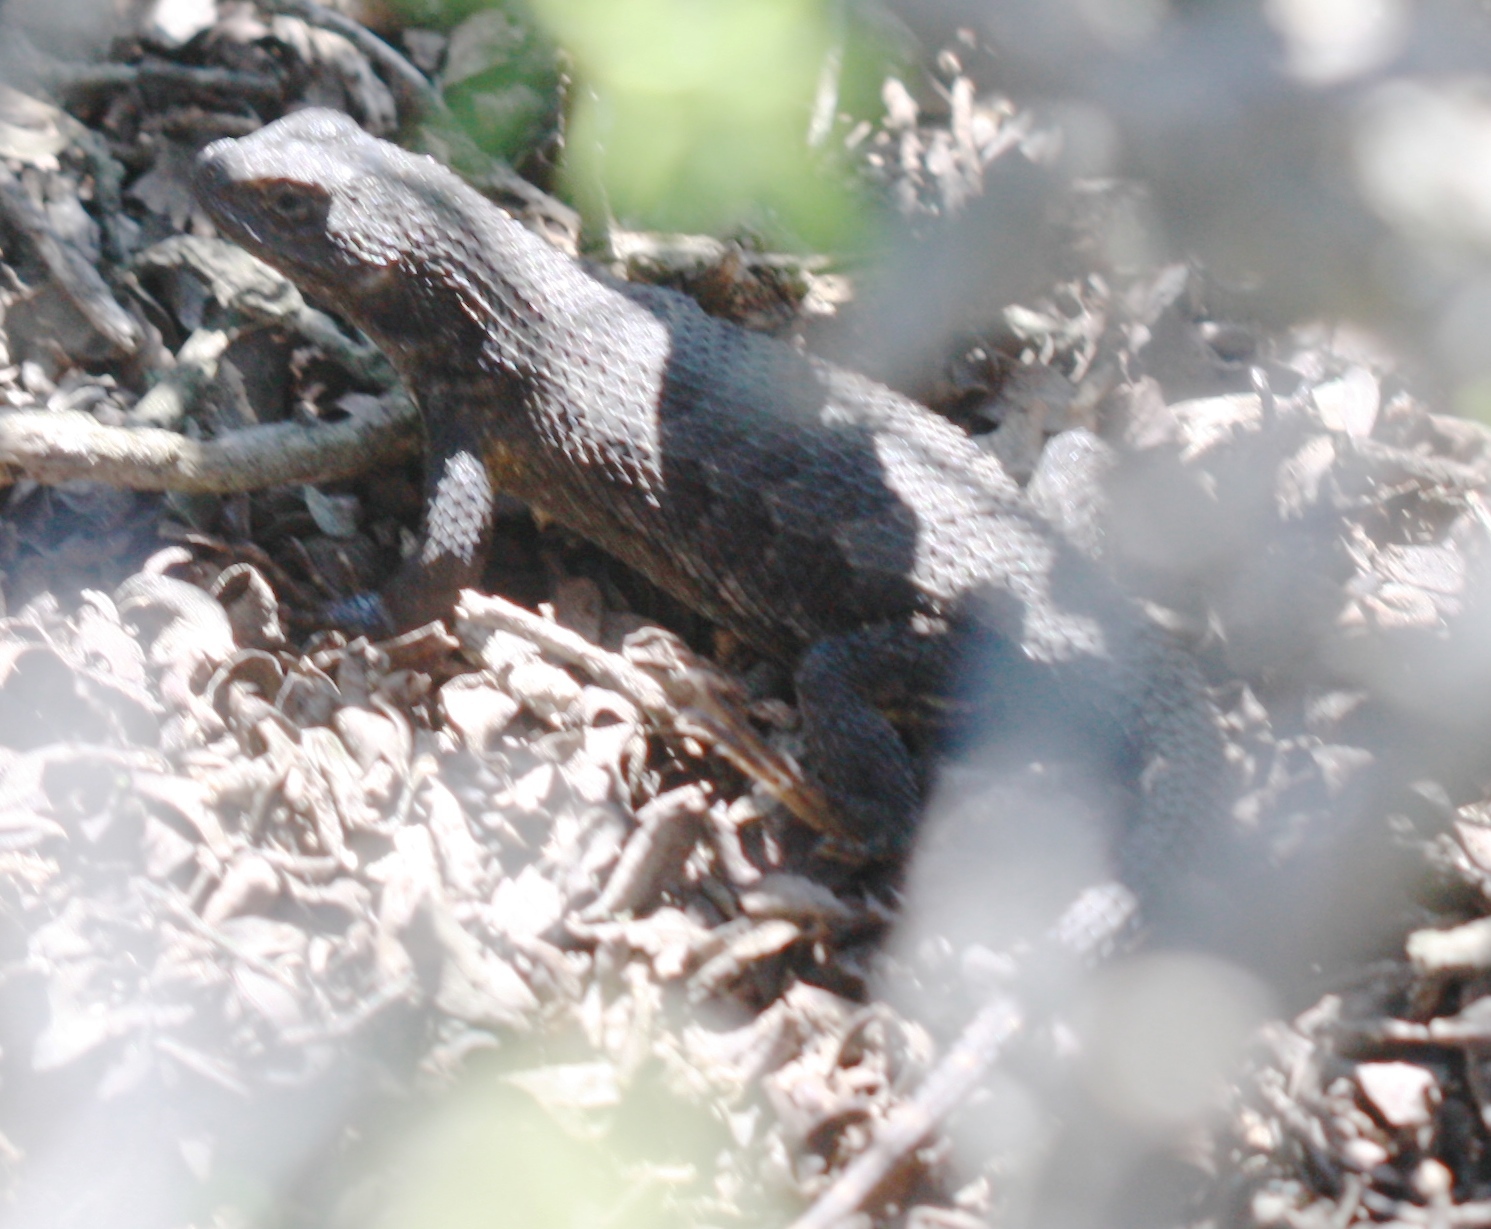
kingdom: Animalia
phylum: Chordata
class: Squamata
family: Phrynosomatidae
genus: Sceloporus
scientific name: Sceloporus occidentalis
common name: Western fence lizard
